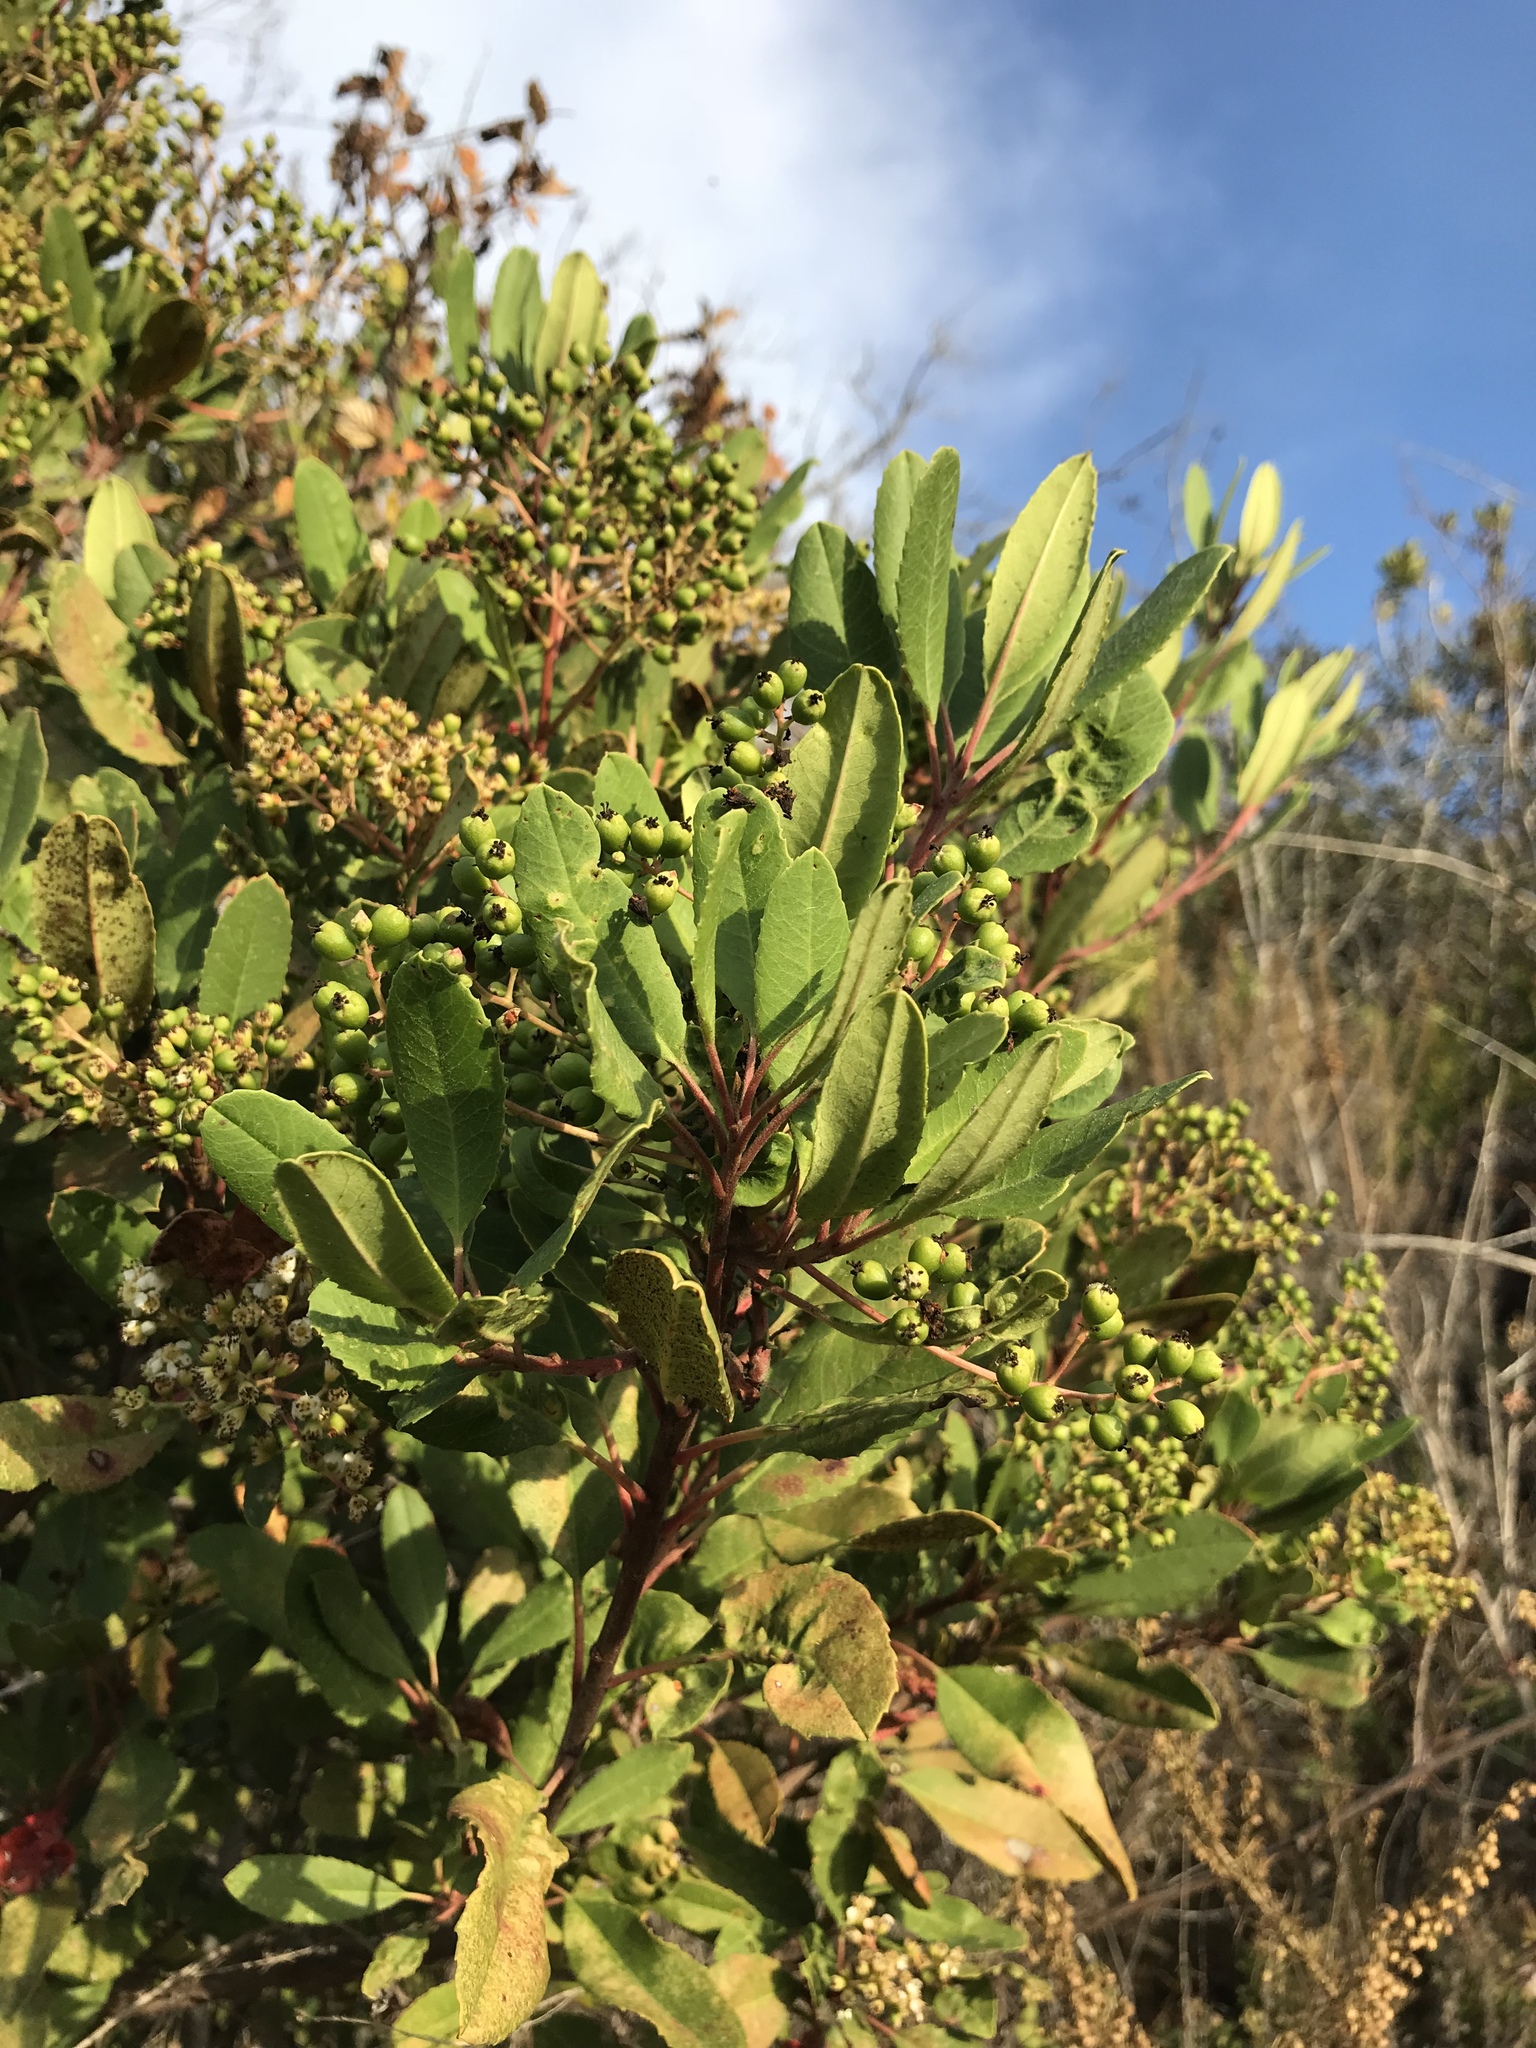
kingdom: Plantae
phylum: Tracheophyta
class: Magnoliopsida
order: Rosales
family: Rosaceae
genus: Heteromeles
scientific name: Heteromeles arbutifolia
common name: California-holly
